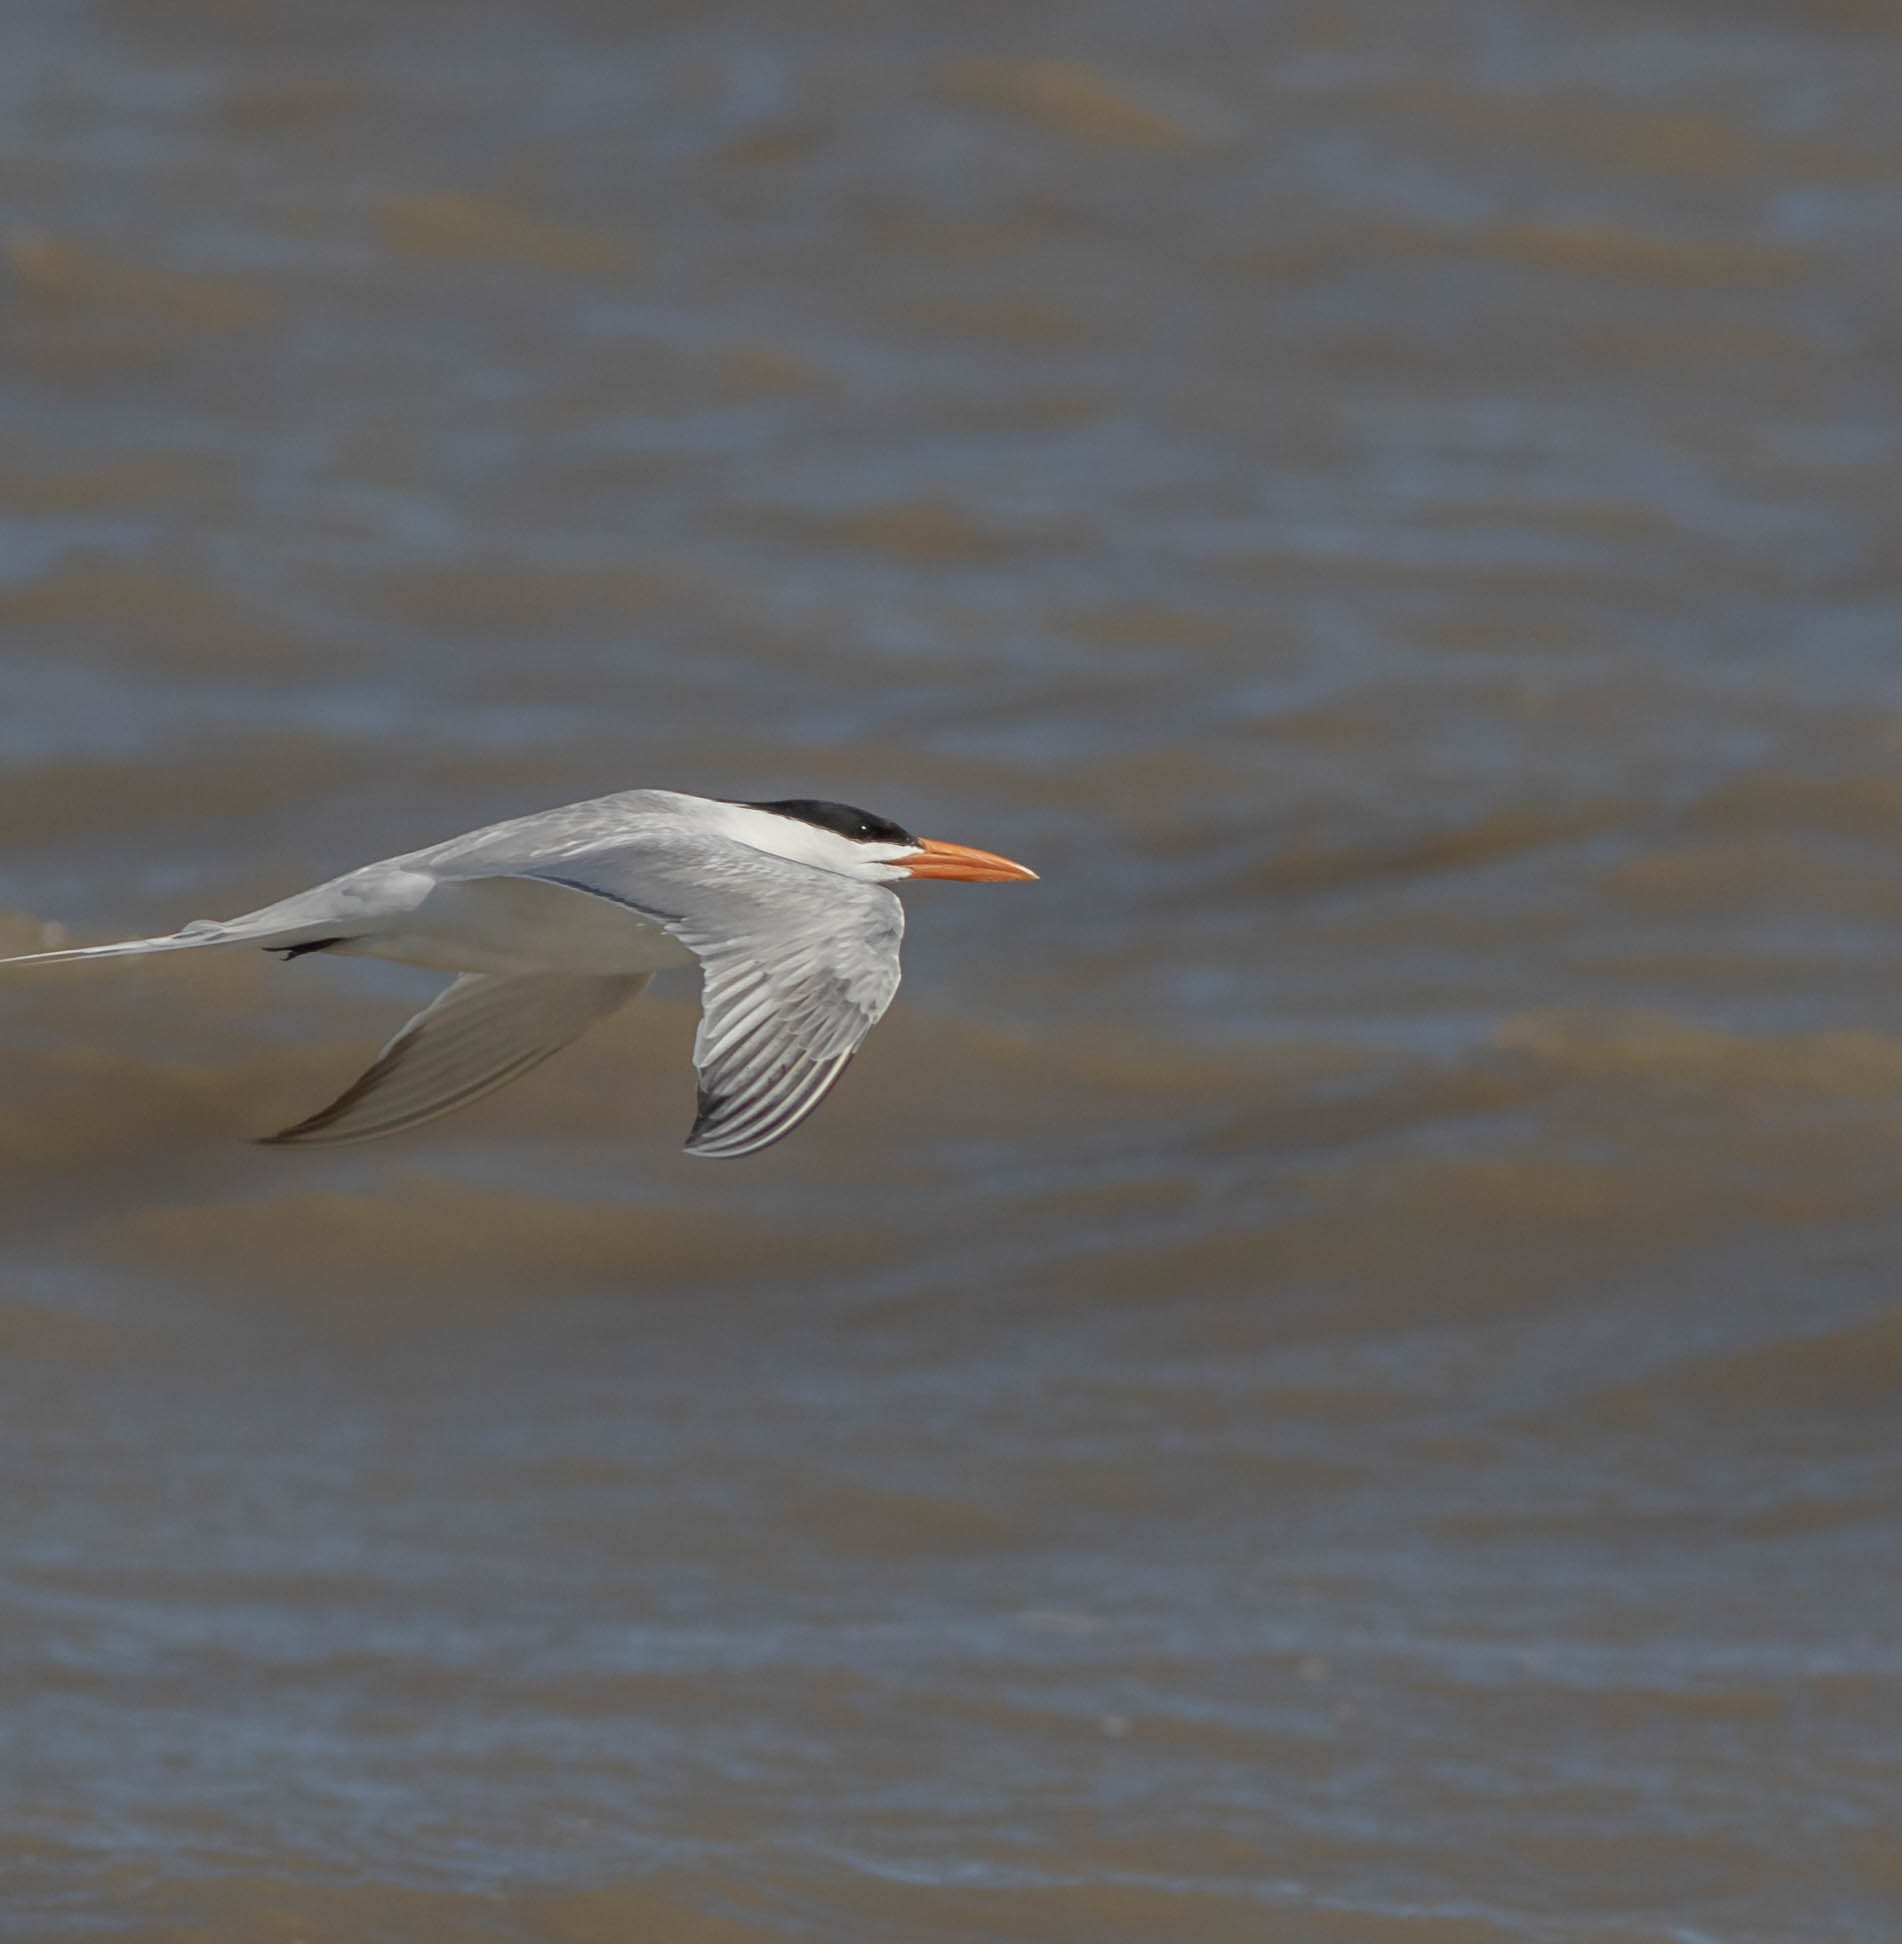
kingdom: Animalia
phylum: Chordata
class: Aves
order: Charadriiformes
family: Laridae
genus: Thalasseus
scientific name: Thalasseus maximus
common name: Royal tern
